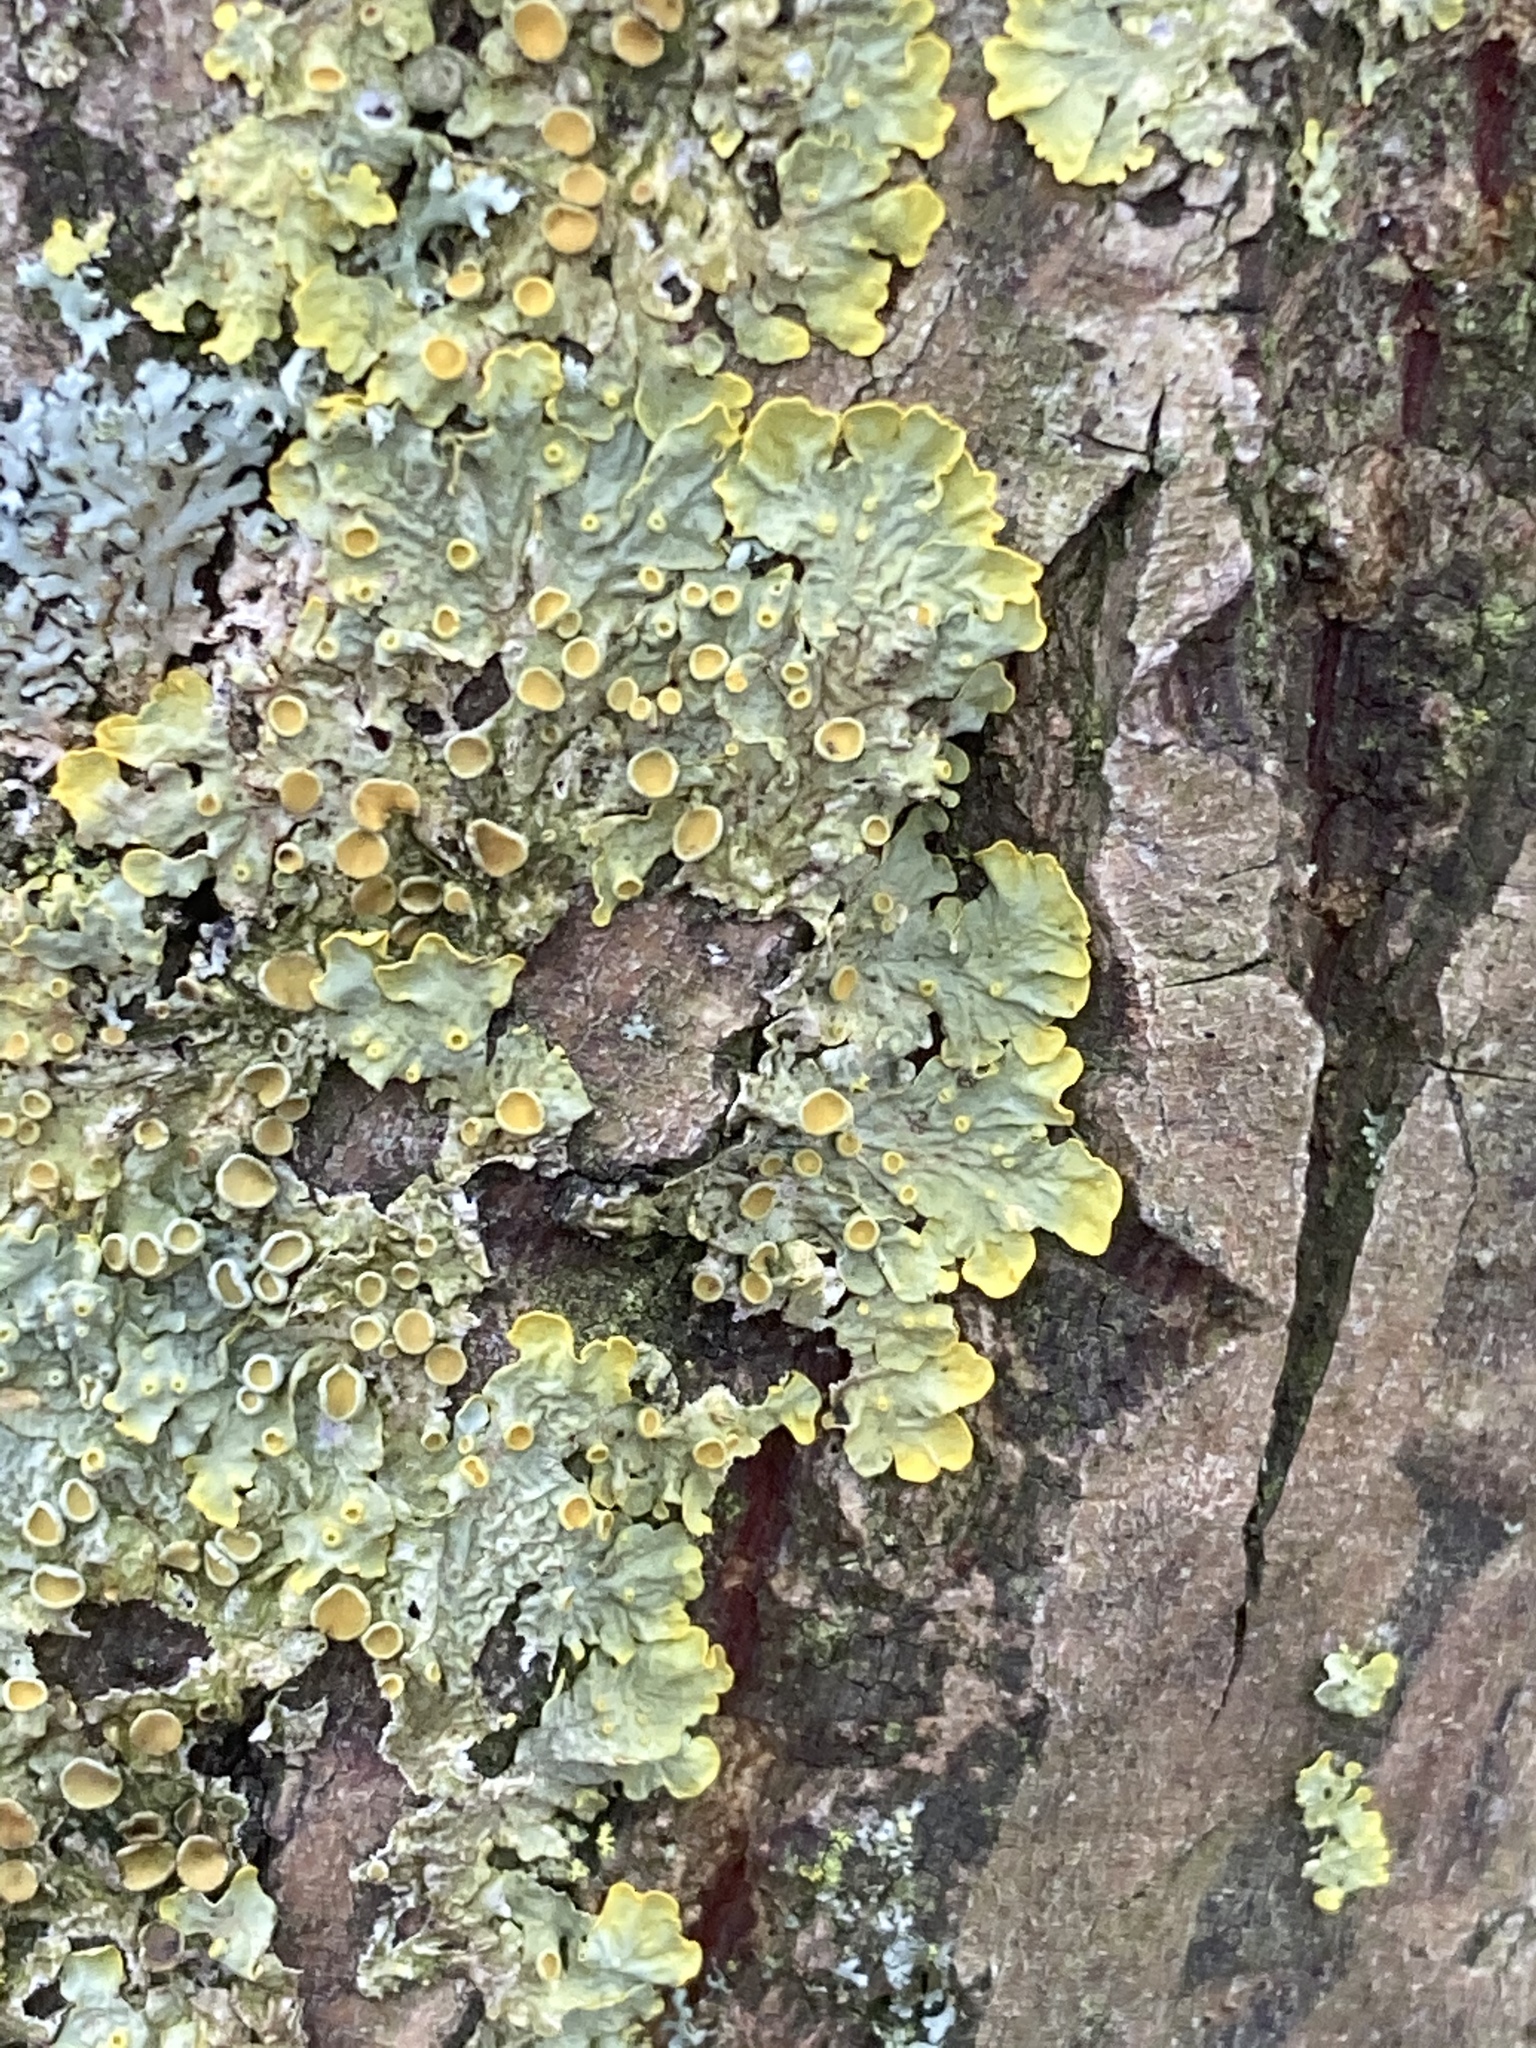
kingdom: Fungi
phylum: Ascomycota
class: Lecanoromycetes
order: Teloschistales
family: Teloschistaceae
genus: Xanthoria
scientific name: Xanthoria parietina
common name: Common orange lichen
